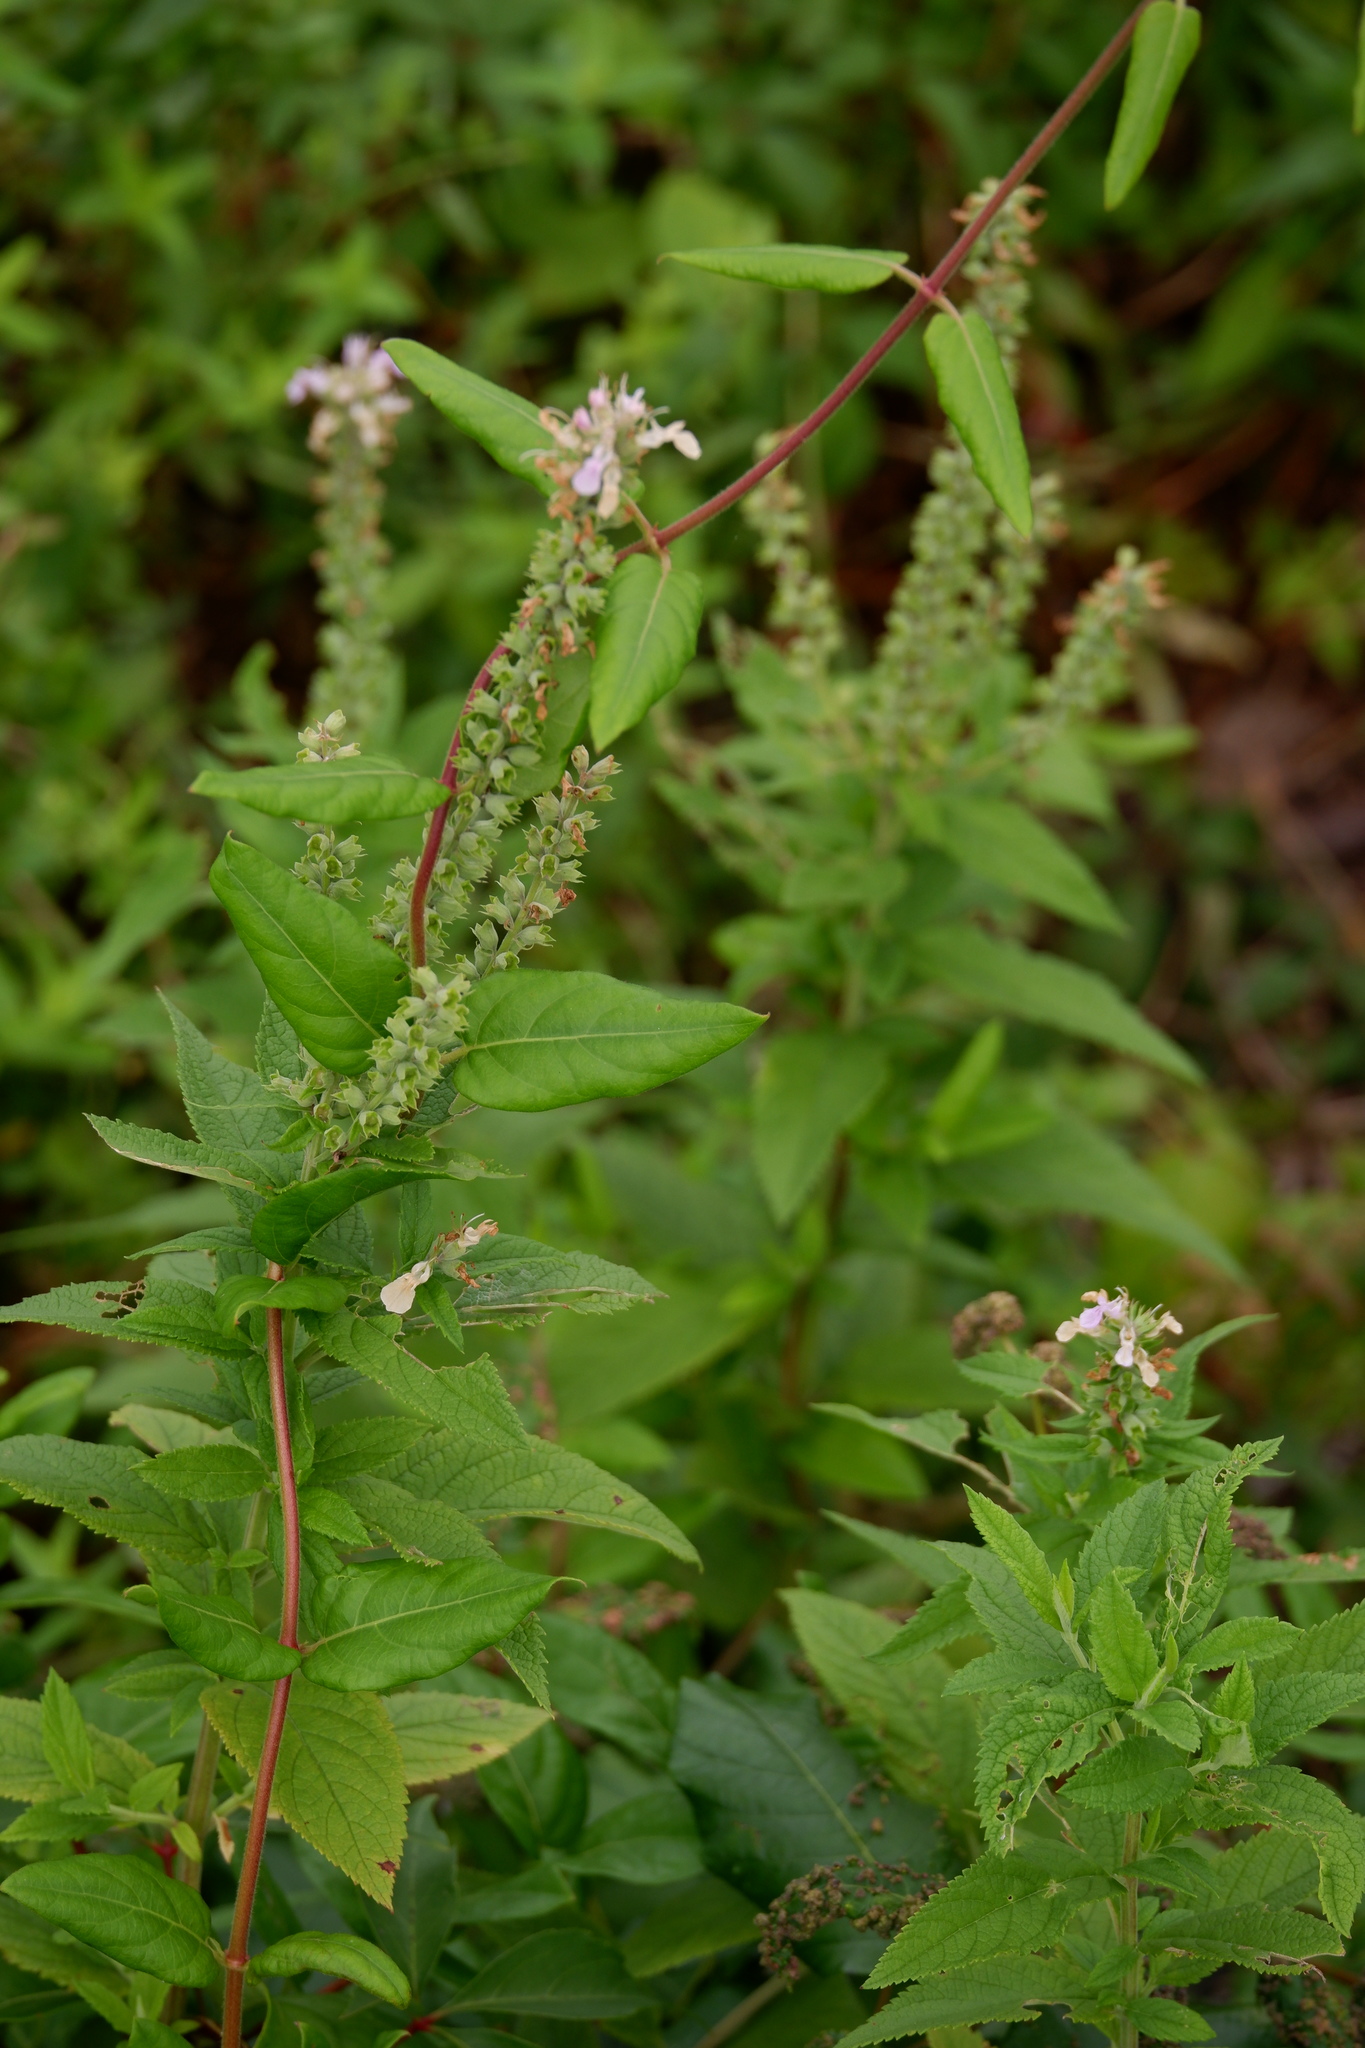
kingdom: Plantae
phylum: Tracheophyta
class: Magnoliopsida
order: Lamiales
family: Lamiaceae
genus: Teucrium
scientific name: Teucrium canadense
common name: American germander
